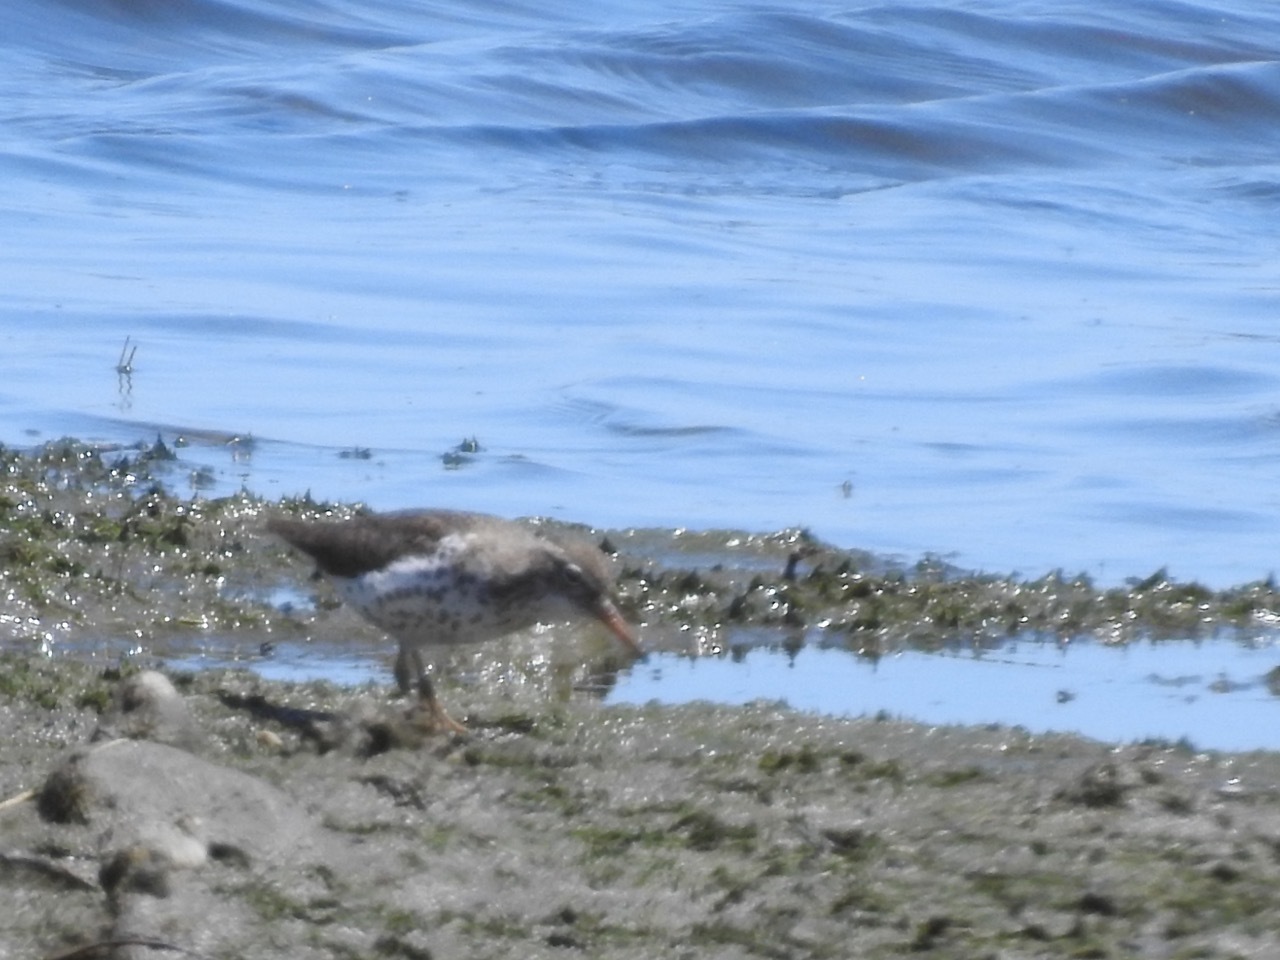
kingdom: Animalia
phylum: Chordata
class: Aves
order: Charadriiformes
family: Scolopacidae
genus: Actitis
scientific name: Actitis macularius
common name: Spotted sandpiper
